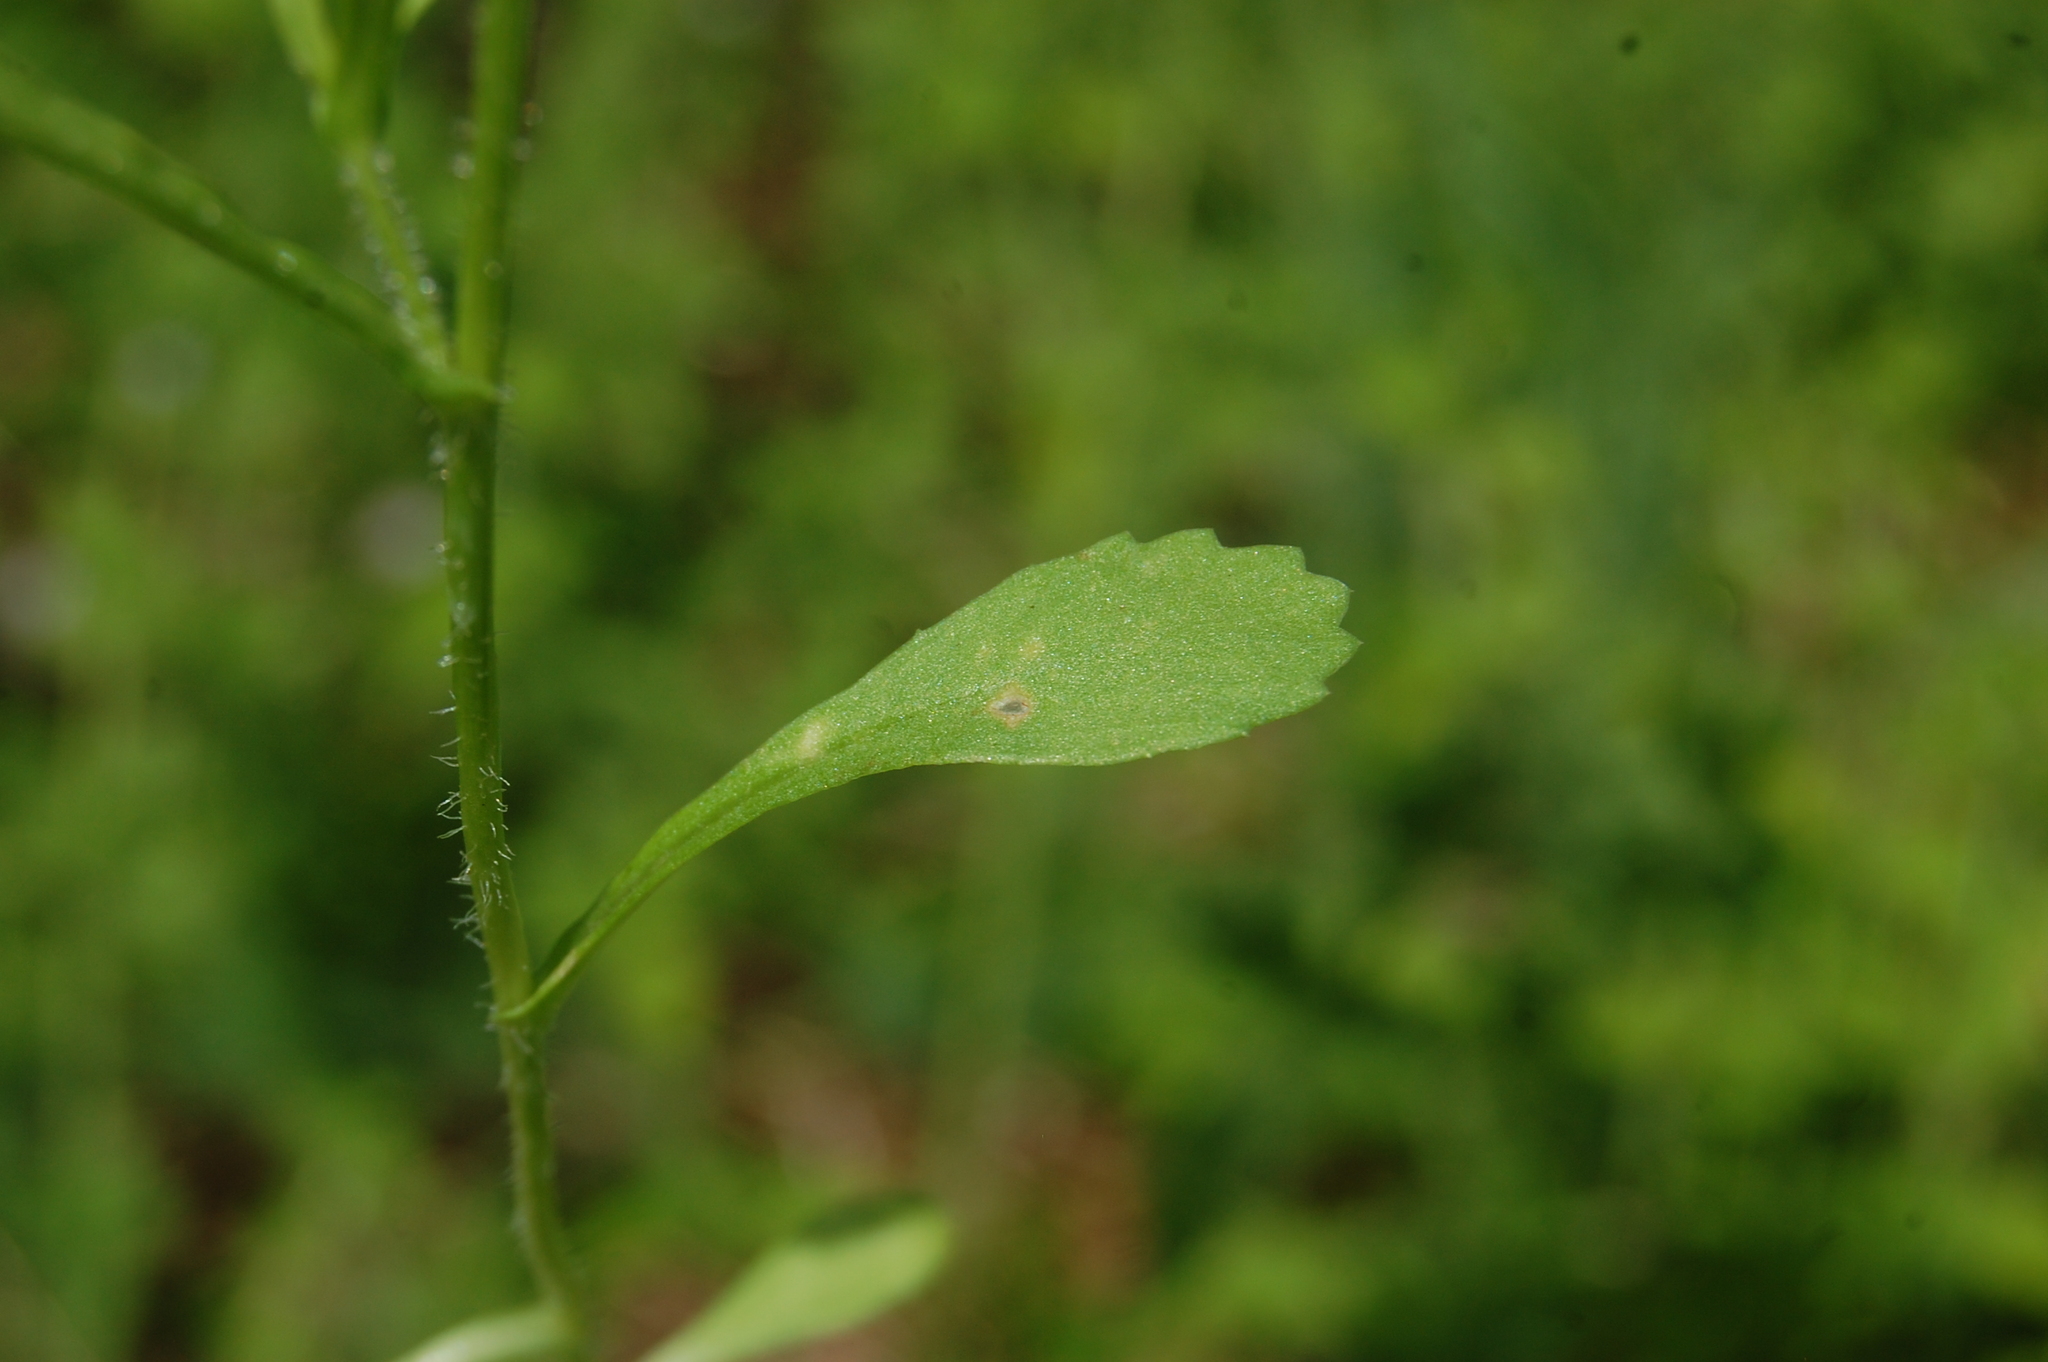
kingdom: Plantae
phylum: Tracheophyta
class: Magnoliopsida
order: Asterales
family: Asteraceae
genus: Coleostephus
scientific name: Coleostephus myconis
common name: Mediterranean marigold
